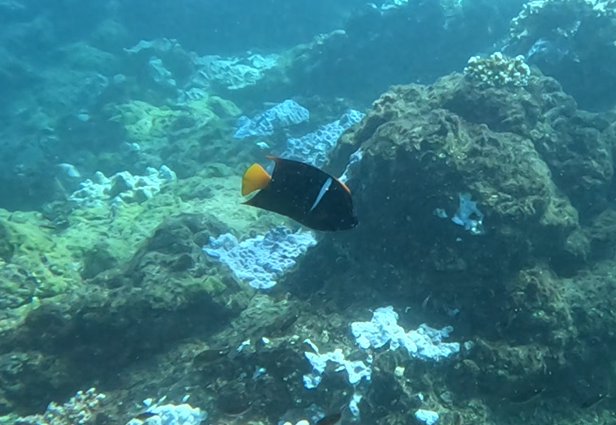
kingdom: Animalia
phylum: Chordata
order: Perciformes
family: Pomacanthidae
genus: Holacanthus
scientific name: Holacanthus passer
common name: King angelfish
